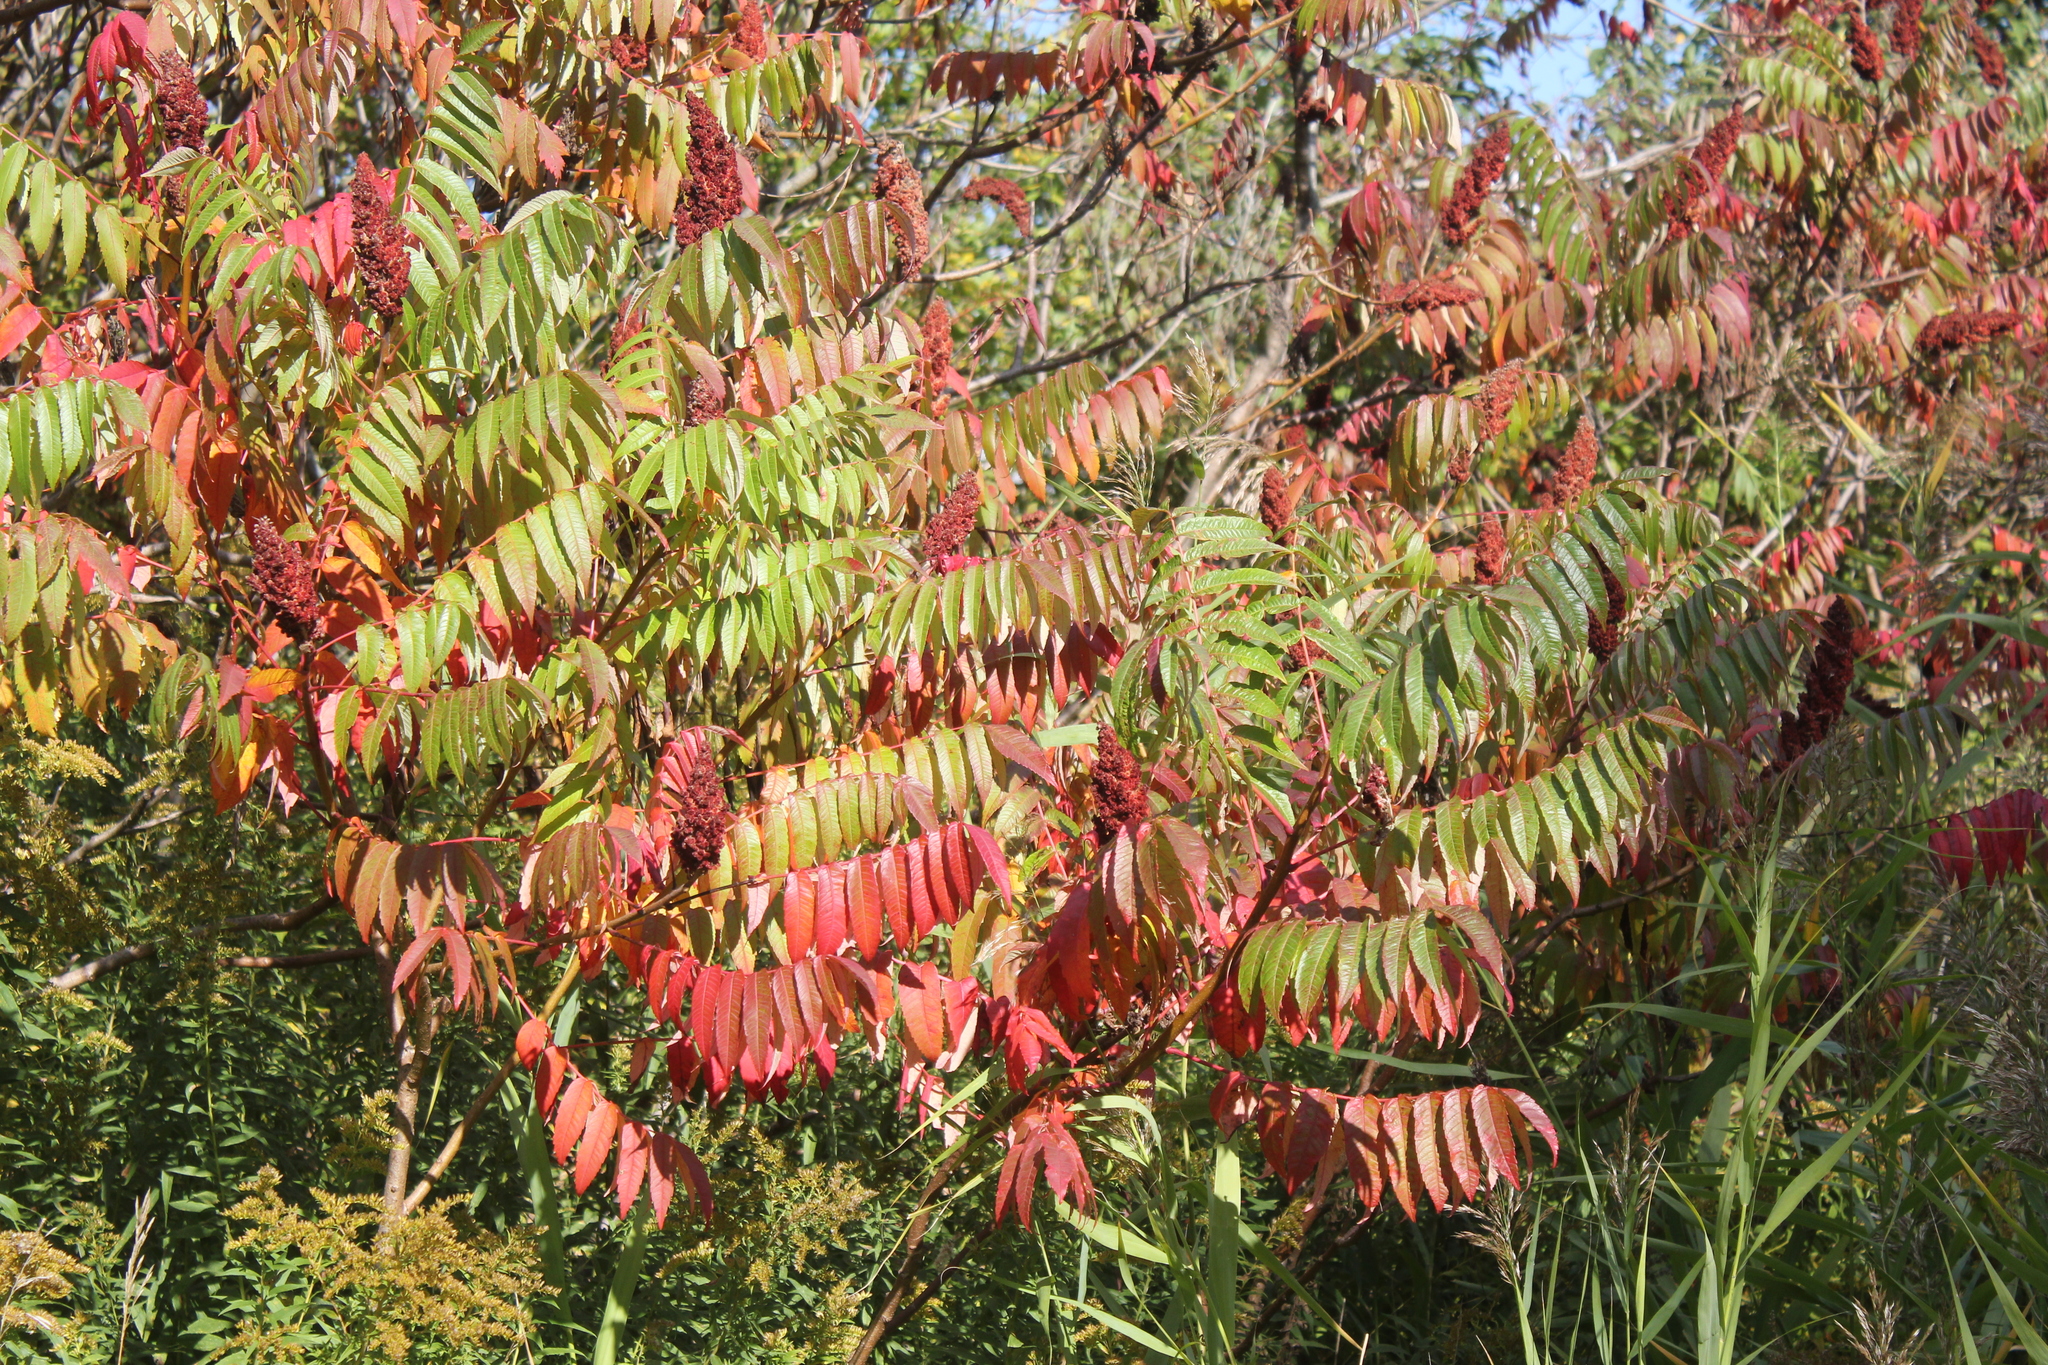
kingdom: Plantae
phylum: Tracheophyta
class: Magnoliopsida
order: Sapindales
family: Anacardiaceae
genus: Rhus
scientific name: Rhus typhina
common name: Staghorn sumac
